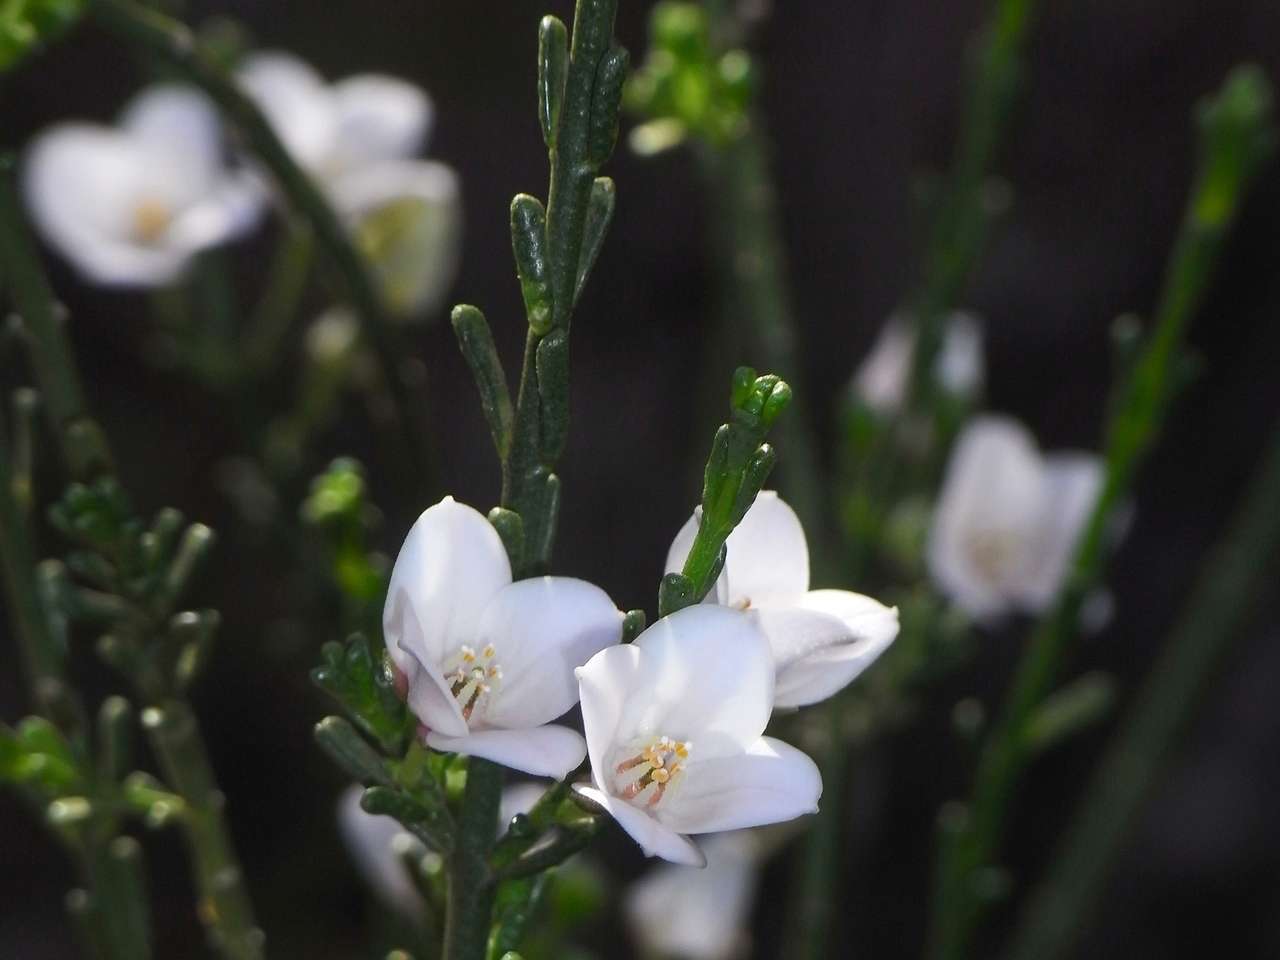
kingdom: Plantae
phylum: Tracheophyta
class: Magnoliopsida
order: Sapindales
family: Rutaceae
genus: Cyanothamnus
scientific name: Cyanothamnus coerulescens
